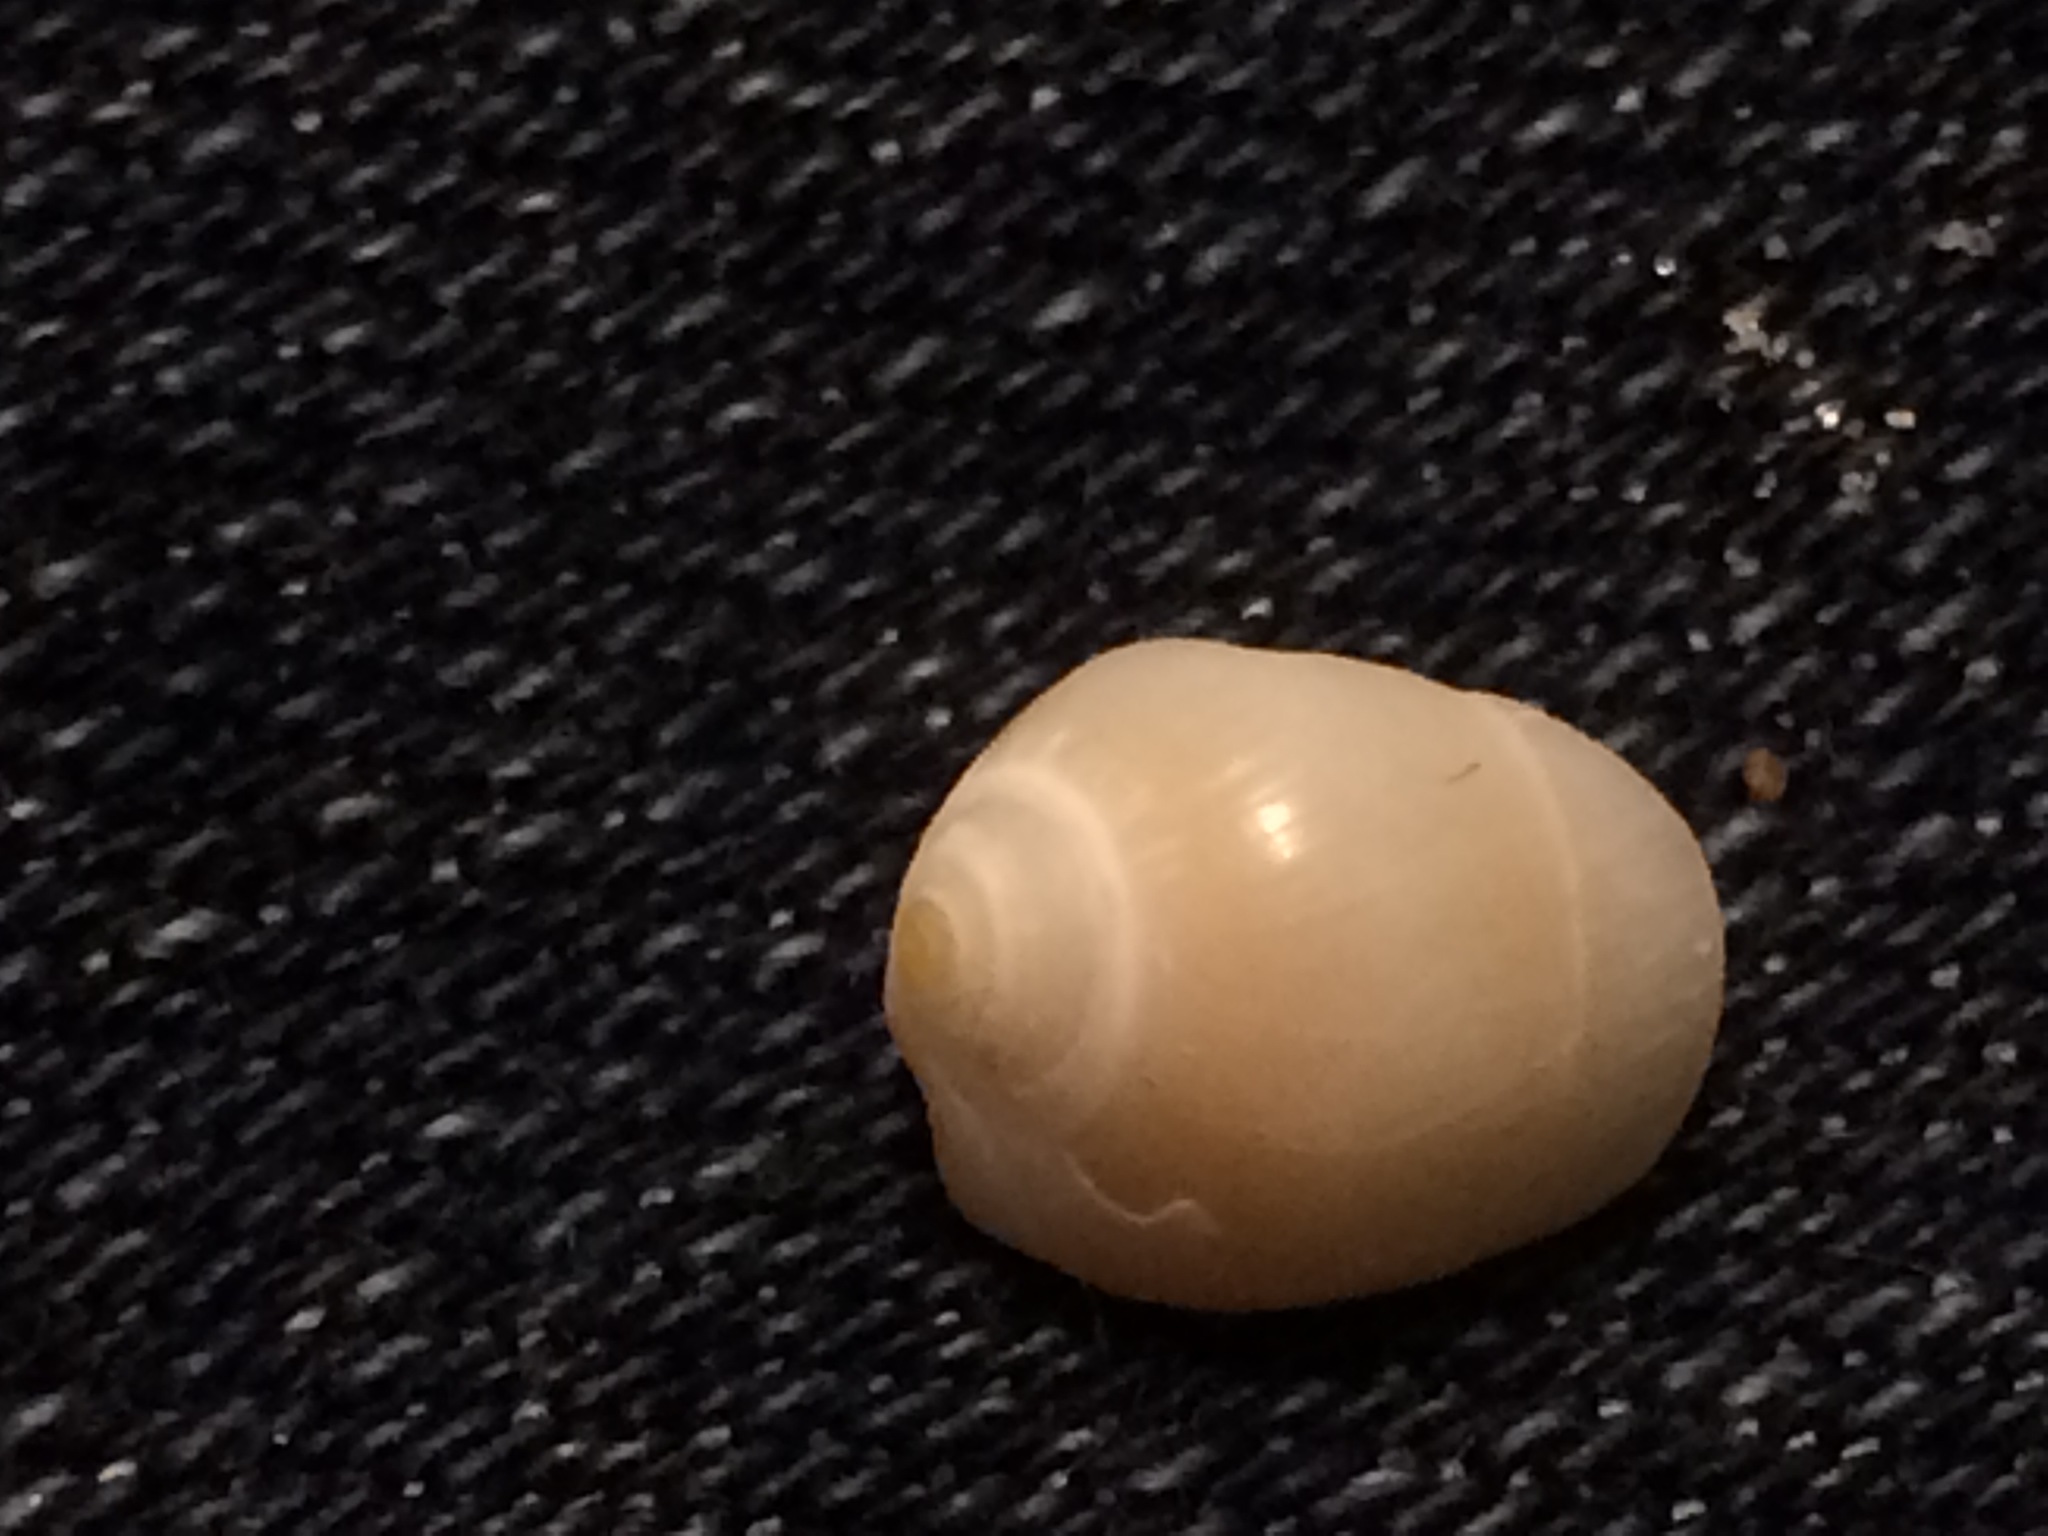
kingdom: Animalia
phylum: Mollusca
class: Gastropoda
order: Neogastropoda
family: Marginellidae
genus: Prunum
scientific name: Prunum apicinum
